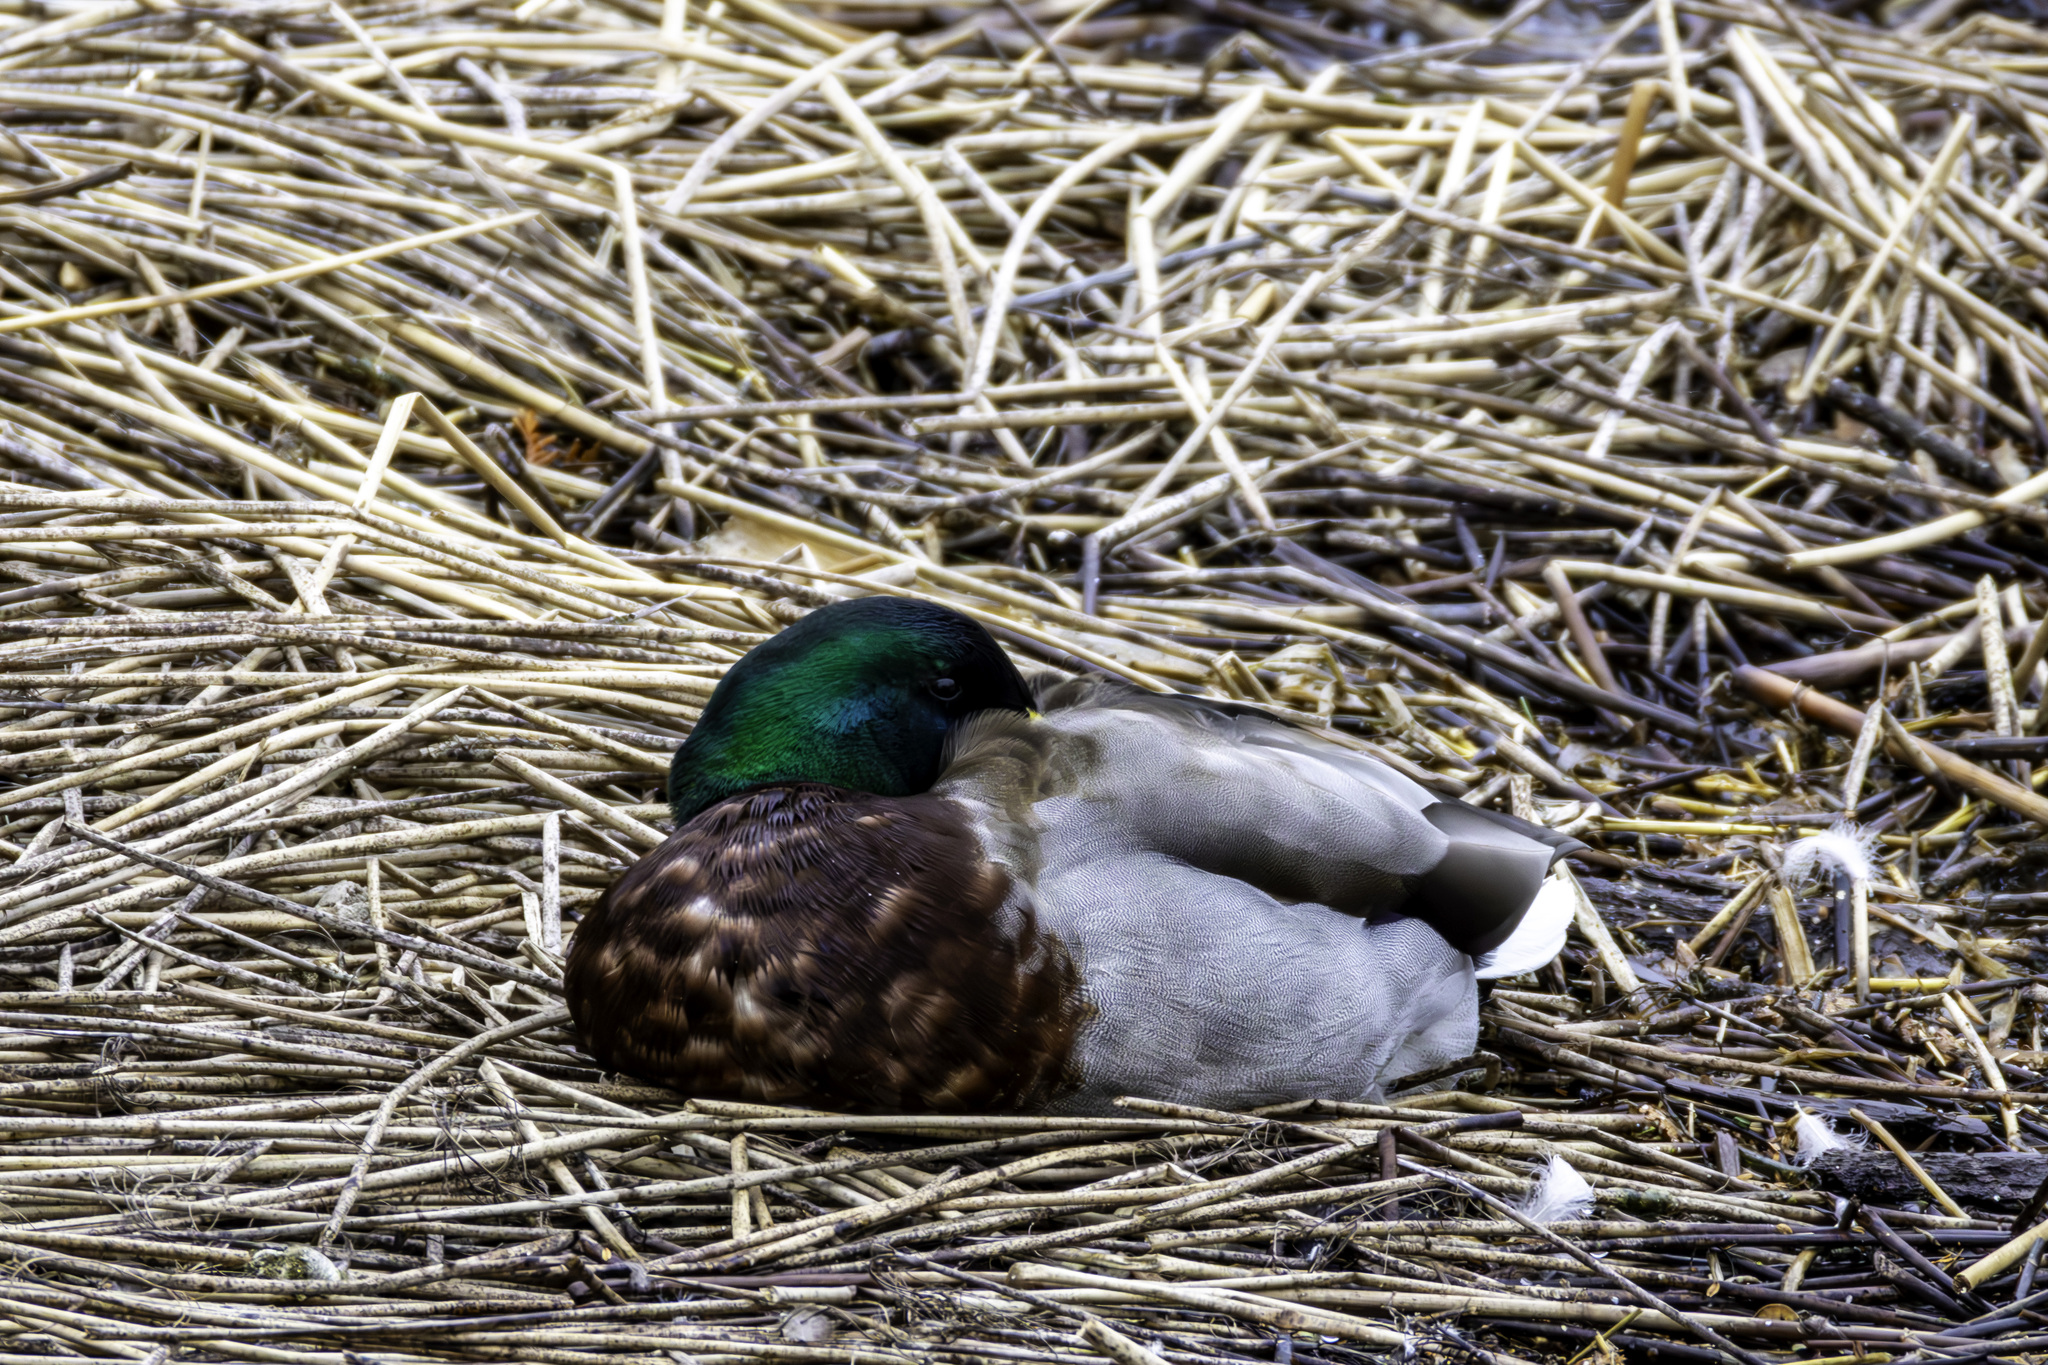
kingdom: Animalia
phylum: Chordata
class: Aves
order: Anseriformes
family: Anatidae
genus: Anas
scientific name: Anas platyrhynchos
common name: Mallard
